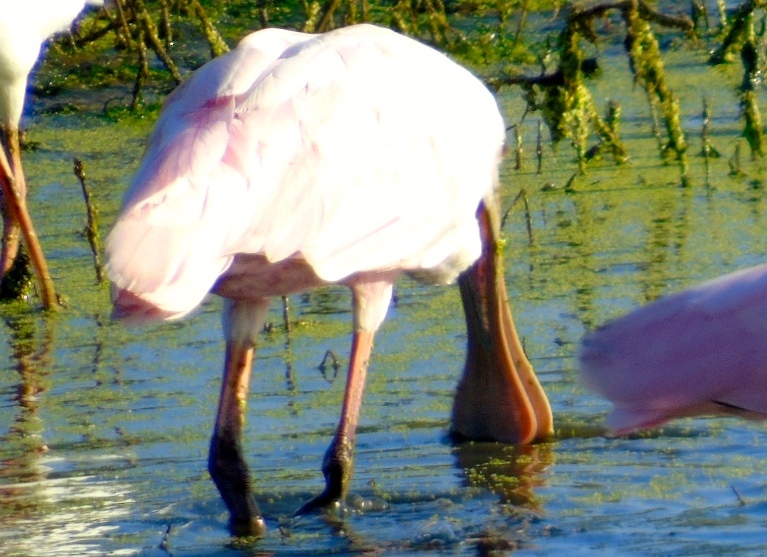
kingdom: Animalia
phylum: Chordata
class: Aves
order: Pelecaniformes
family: Threskiornithidae
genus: Platalea
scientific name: Platalea ajaja
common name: Roseate spoonbill
